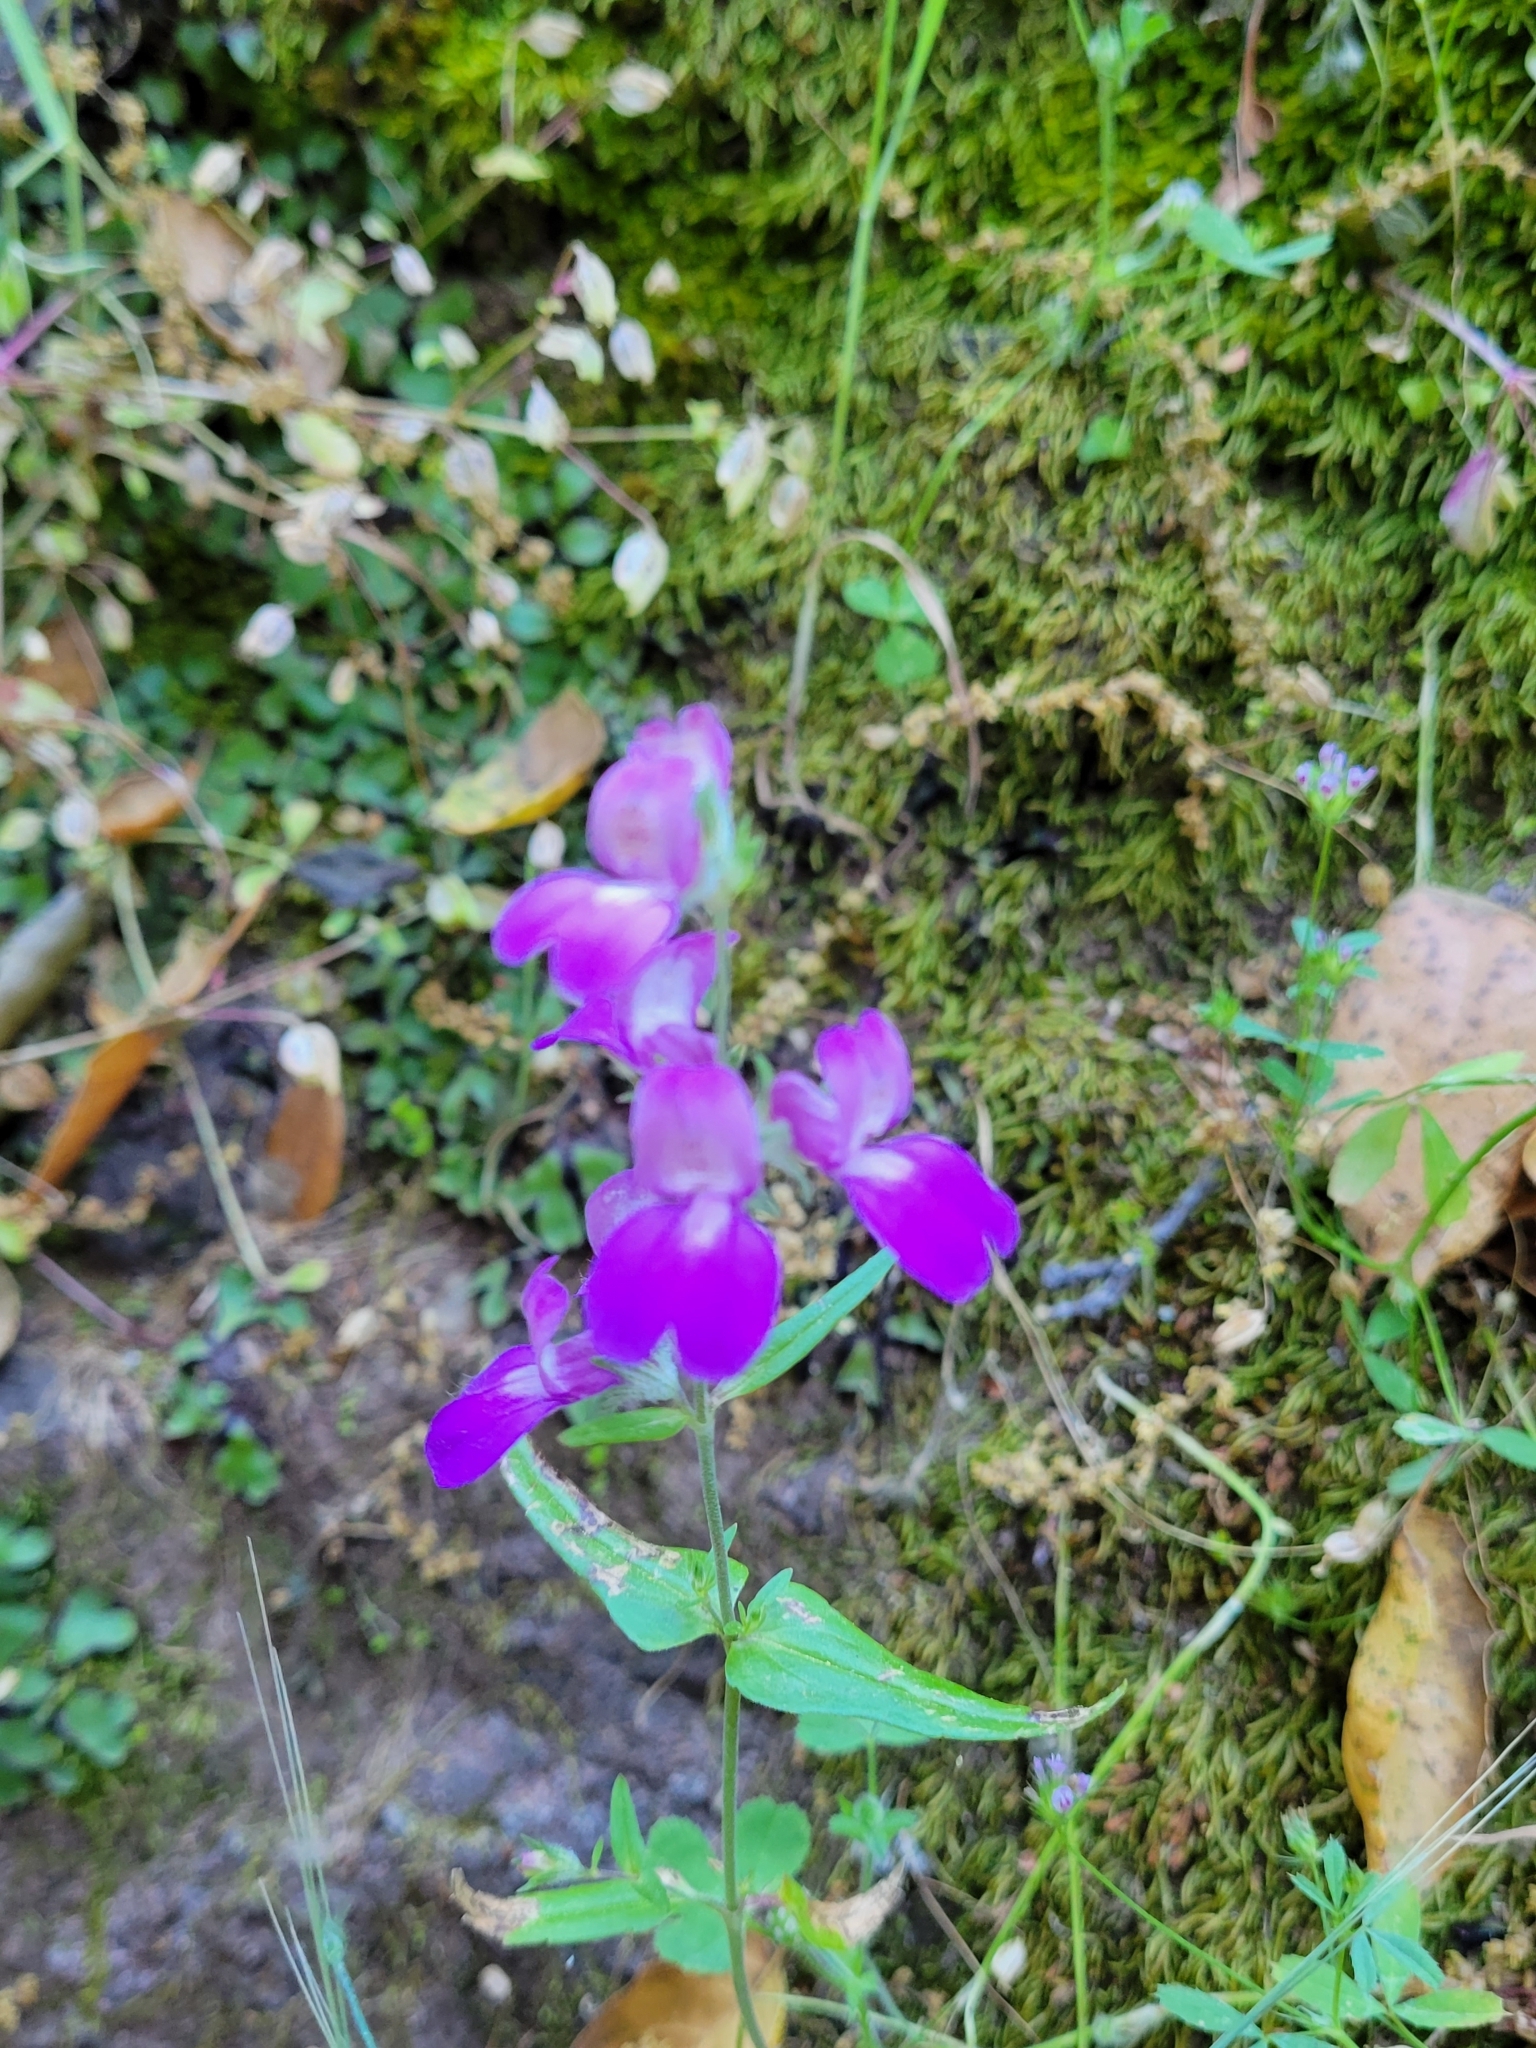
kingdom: Plantae
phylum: Tracheophyta
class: Magnoliopsida
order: Lamiales
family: Plantaginaceae
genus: Collinsia
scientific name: Collinsia heterophylla
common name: Chinese-houses
